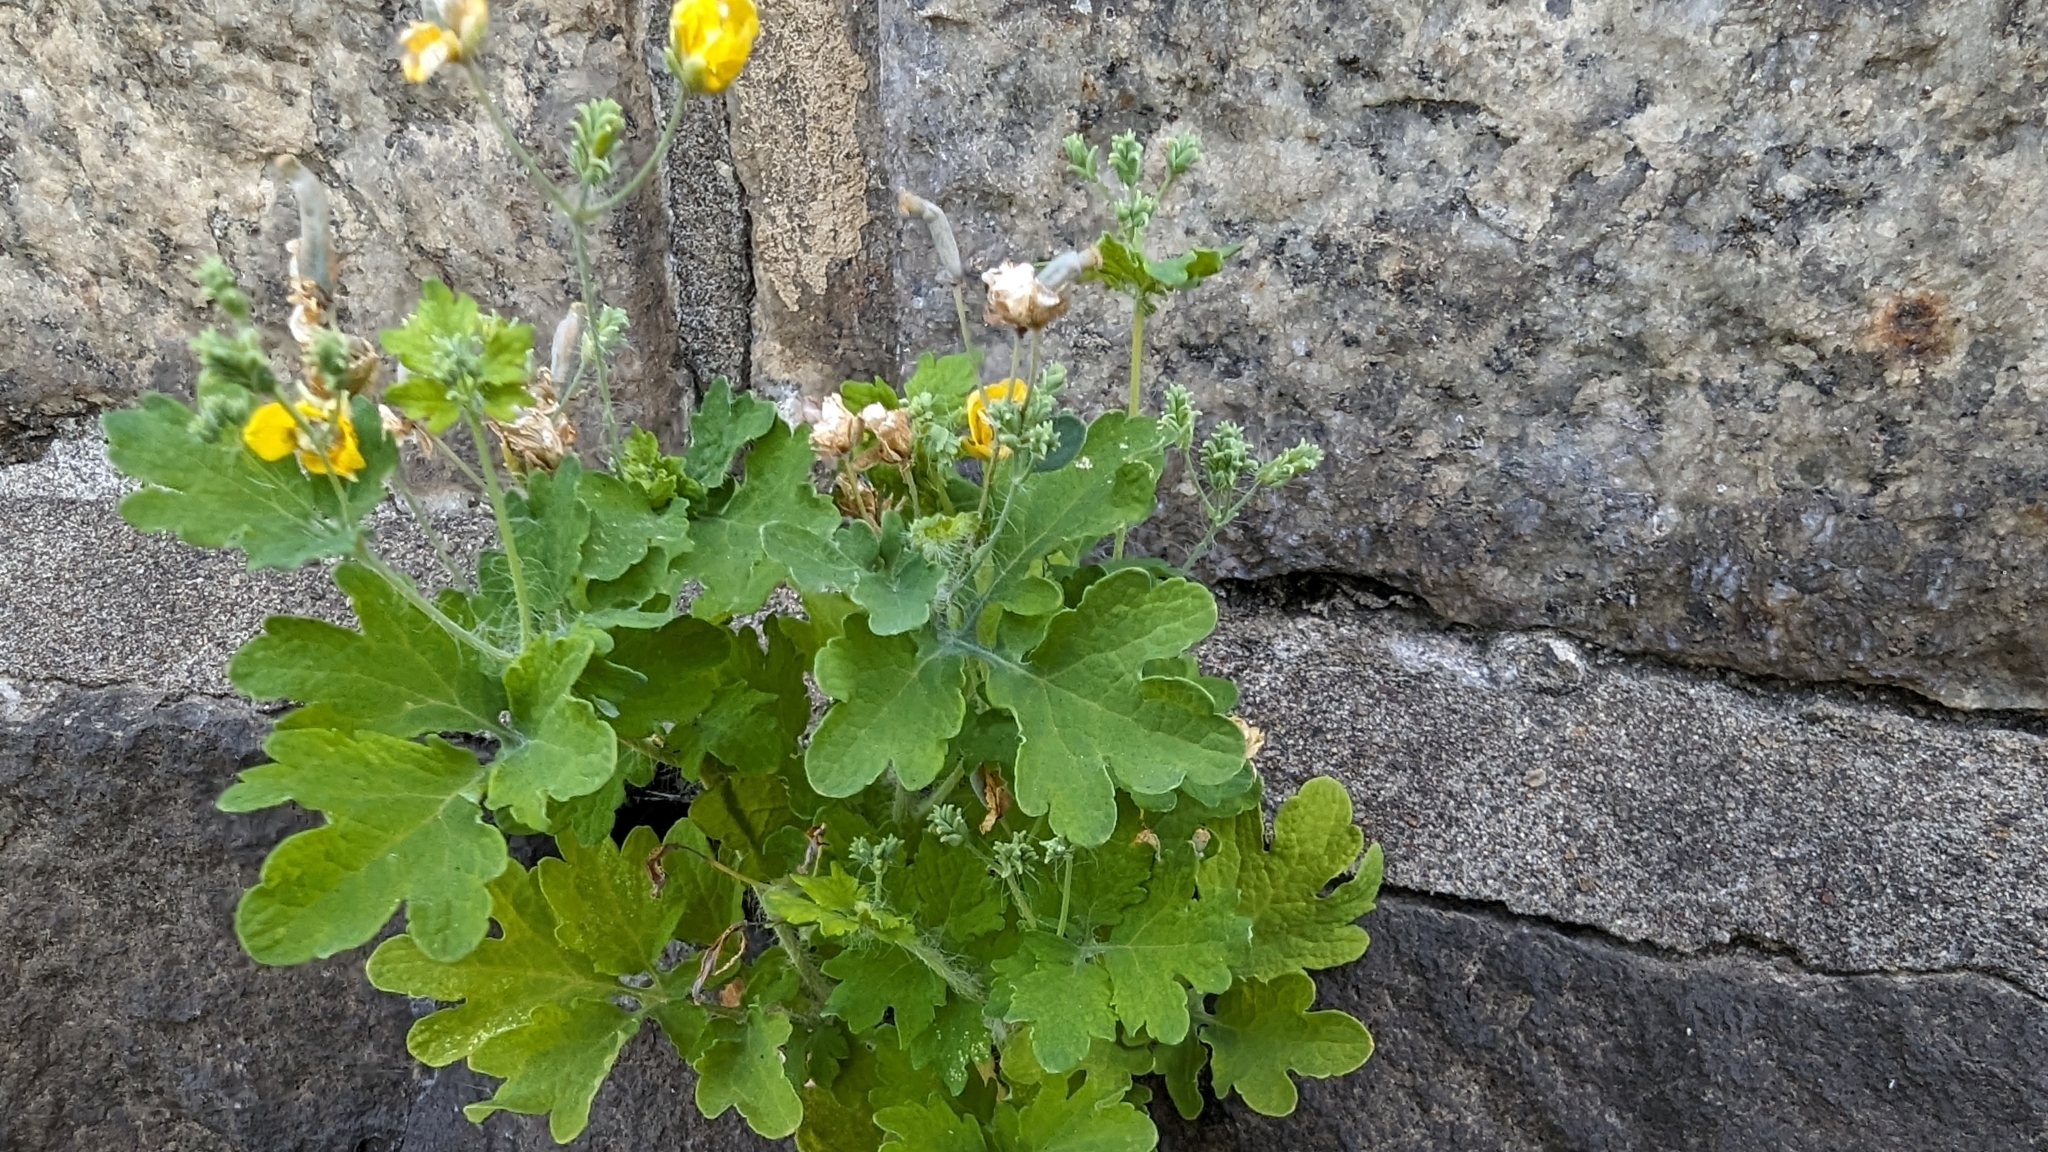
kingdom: Plantae
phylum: Tracheophyta
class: Magnoliopsida
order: Ranunculales
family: Papaveraceae
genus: Chelidonium
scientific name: Chelidonium majus
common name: Greater celandine
